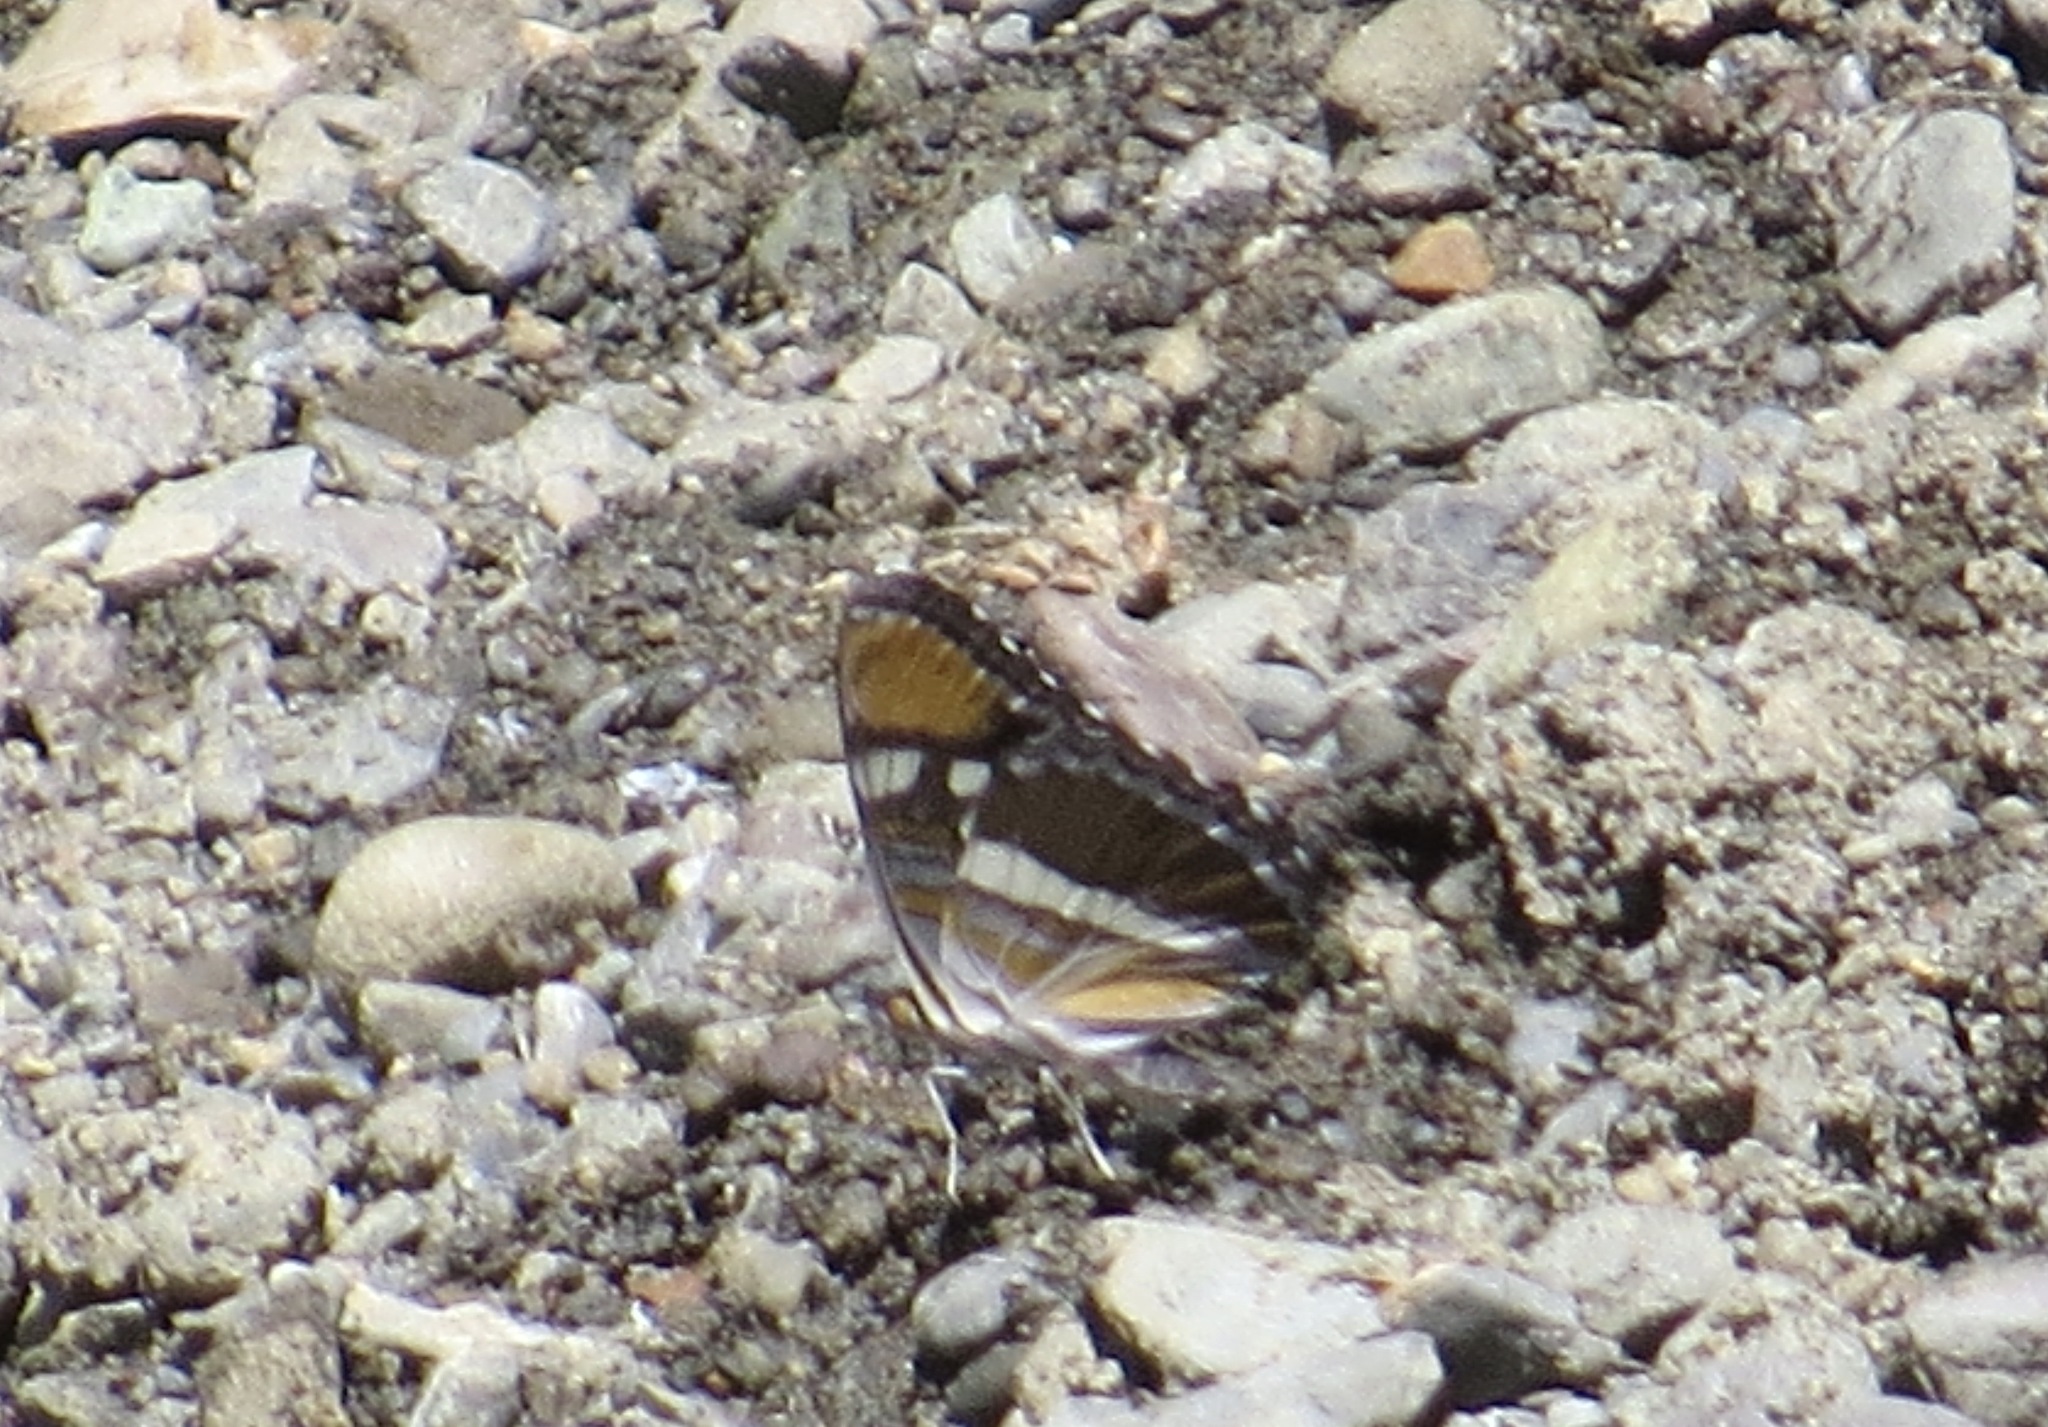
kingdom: Animalia
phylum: Arthropoda
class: Insecta
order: Lepidoptera
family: Nymphalidae
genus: Limenitis
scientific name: Limenitis bredowii
